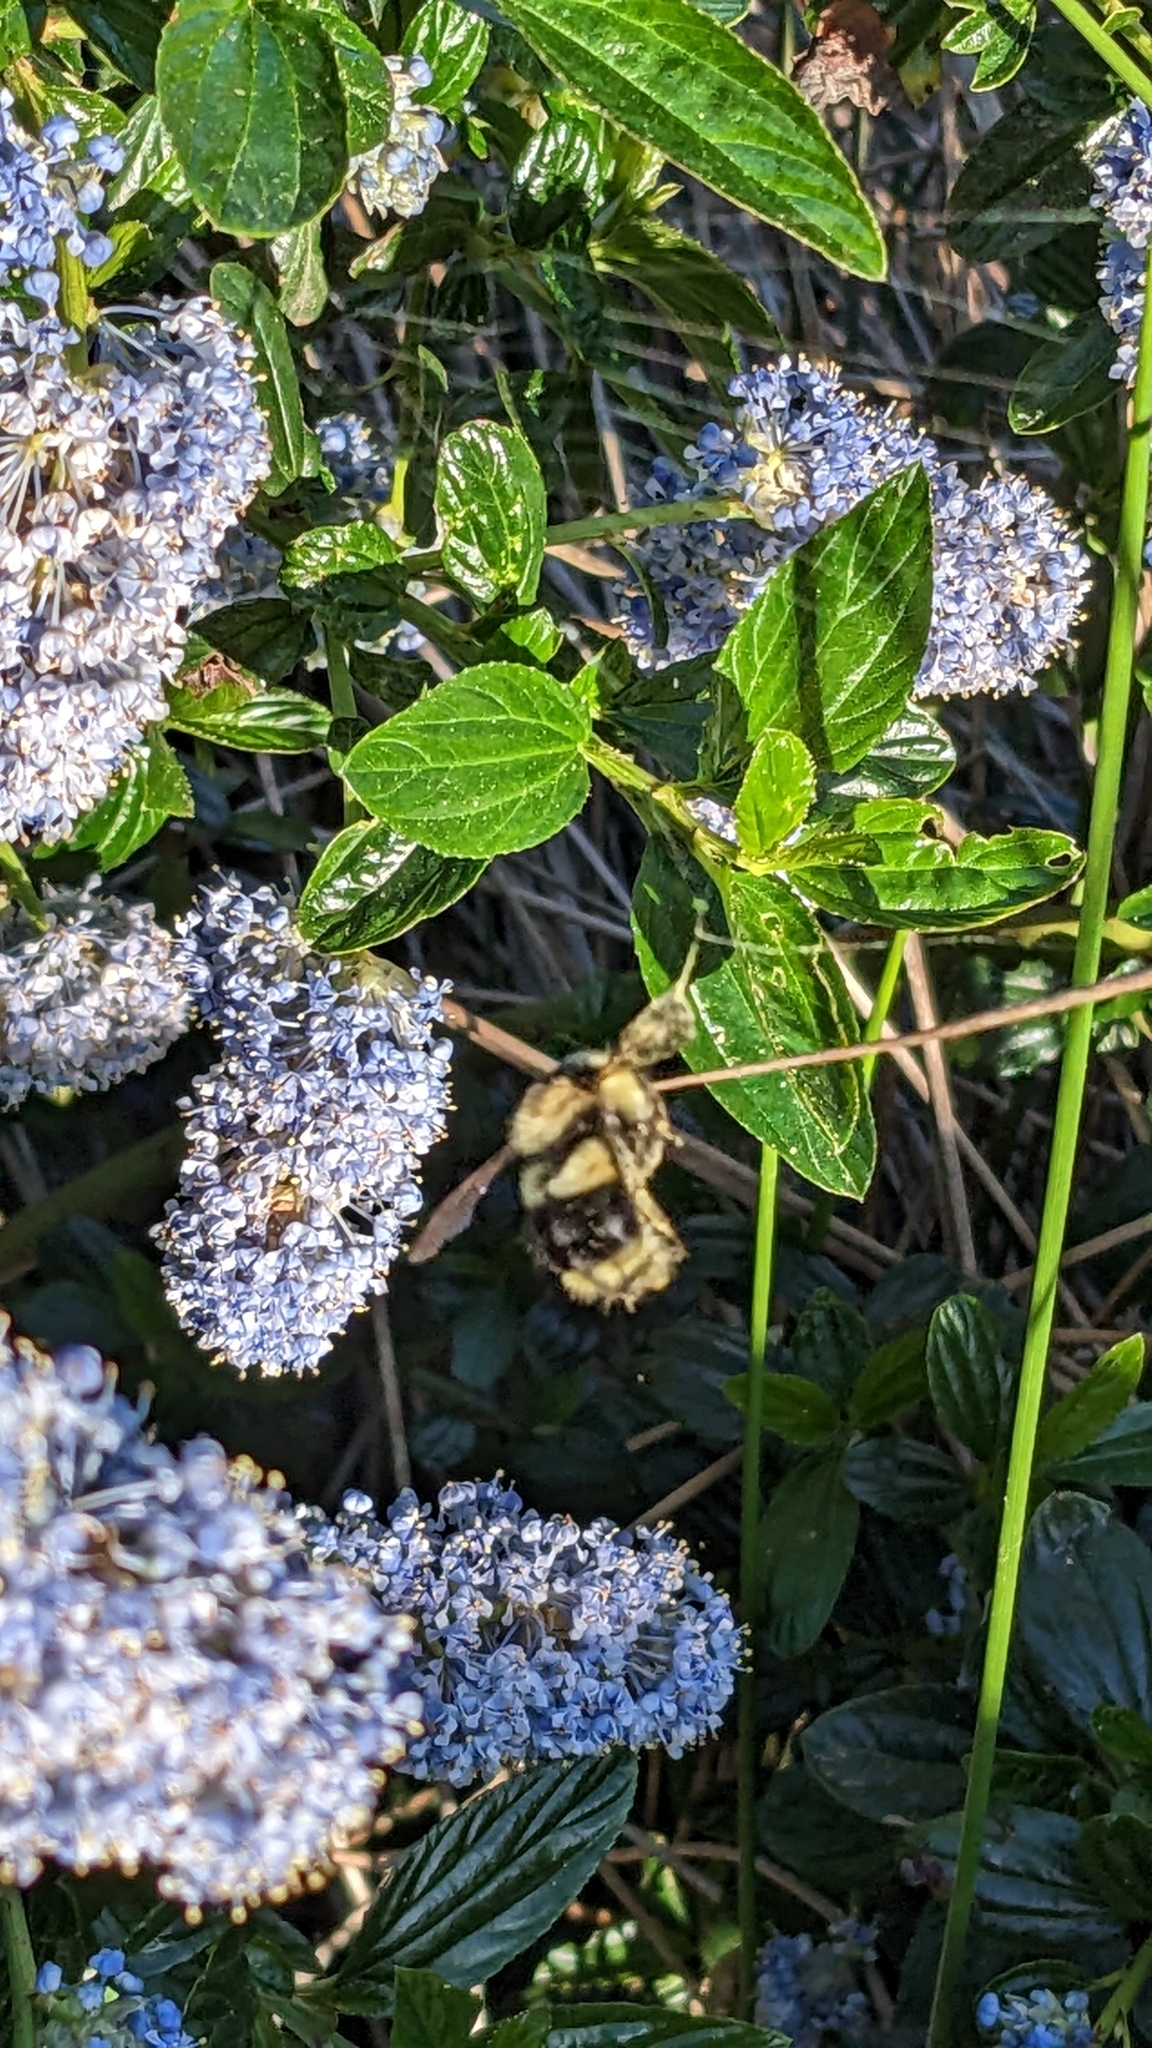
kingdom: Animalia
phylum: Arthropoda
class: Insecta
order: Hymenoptera
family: Apidae
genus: Bombus
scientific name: Bombus melanopygus
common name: Black tail bumble bee
